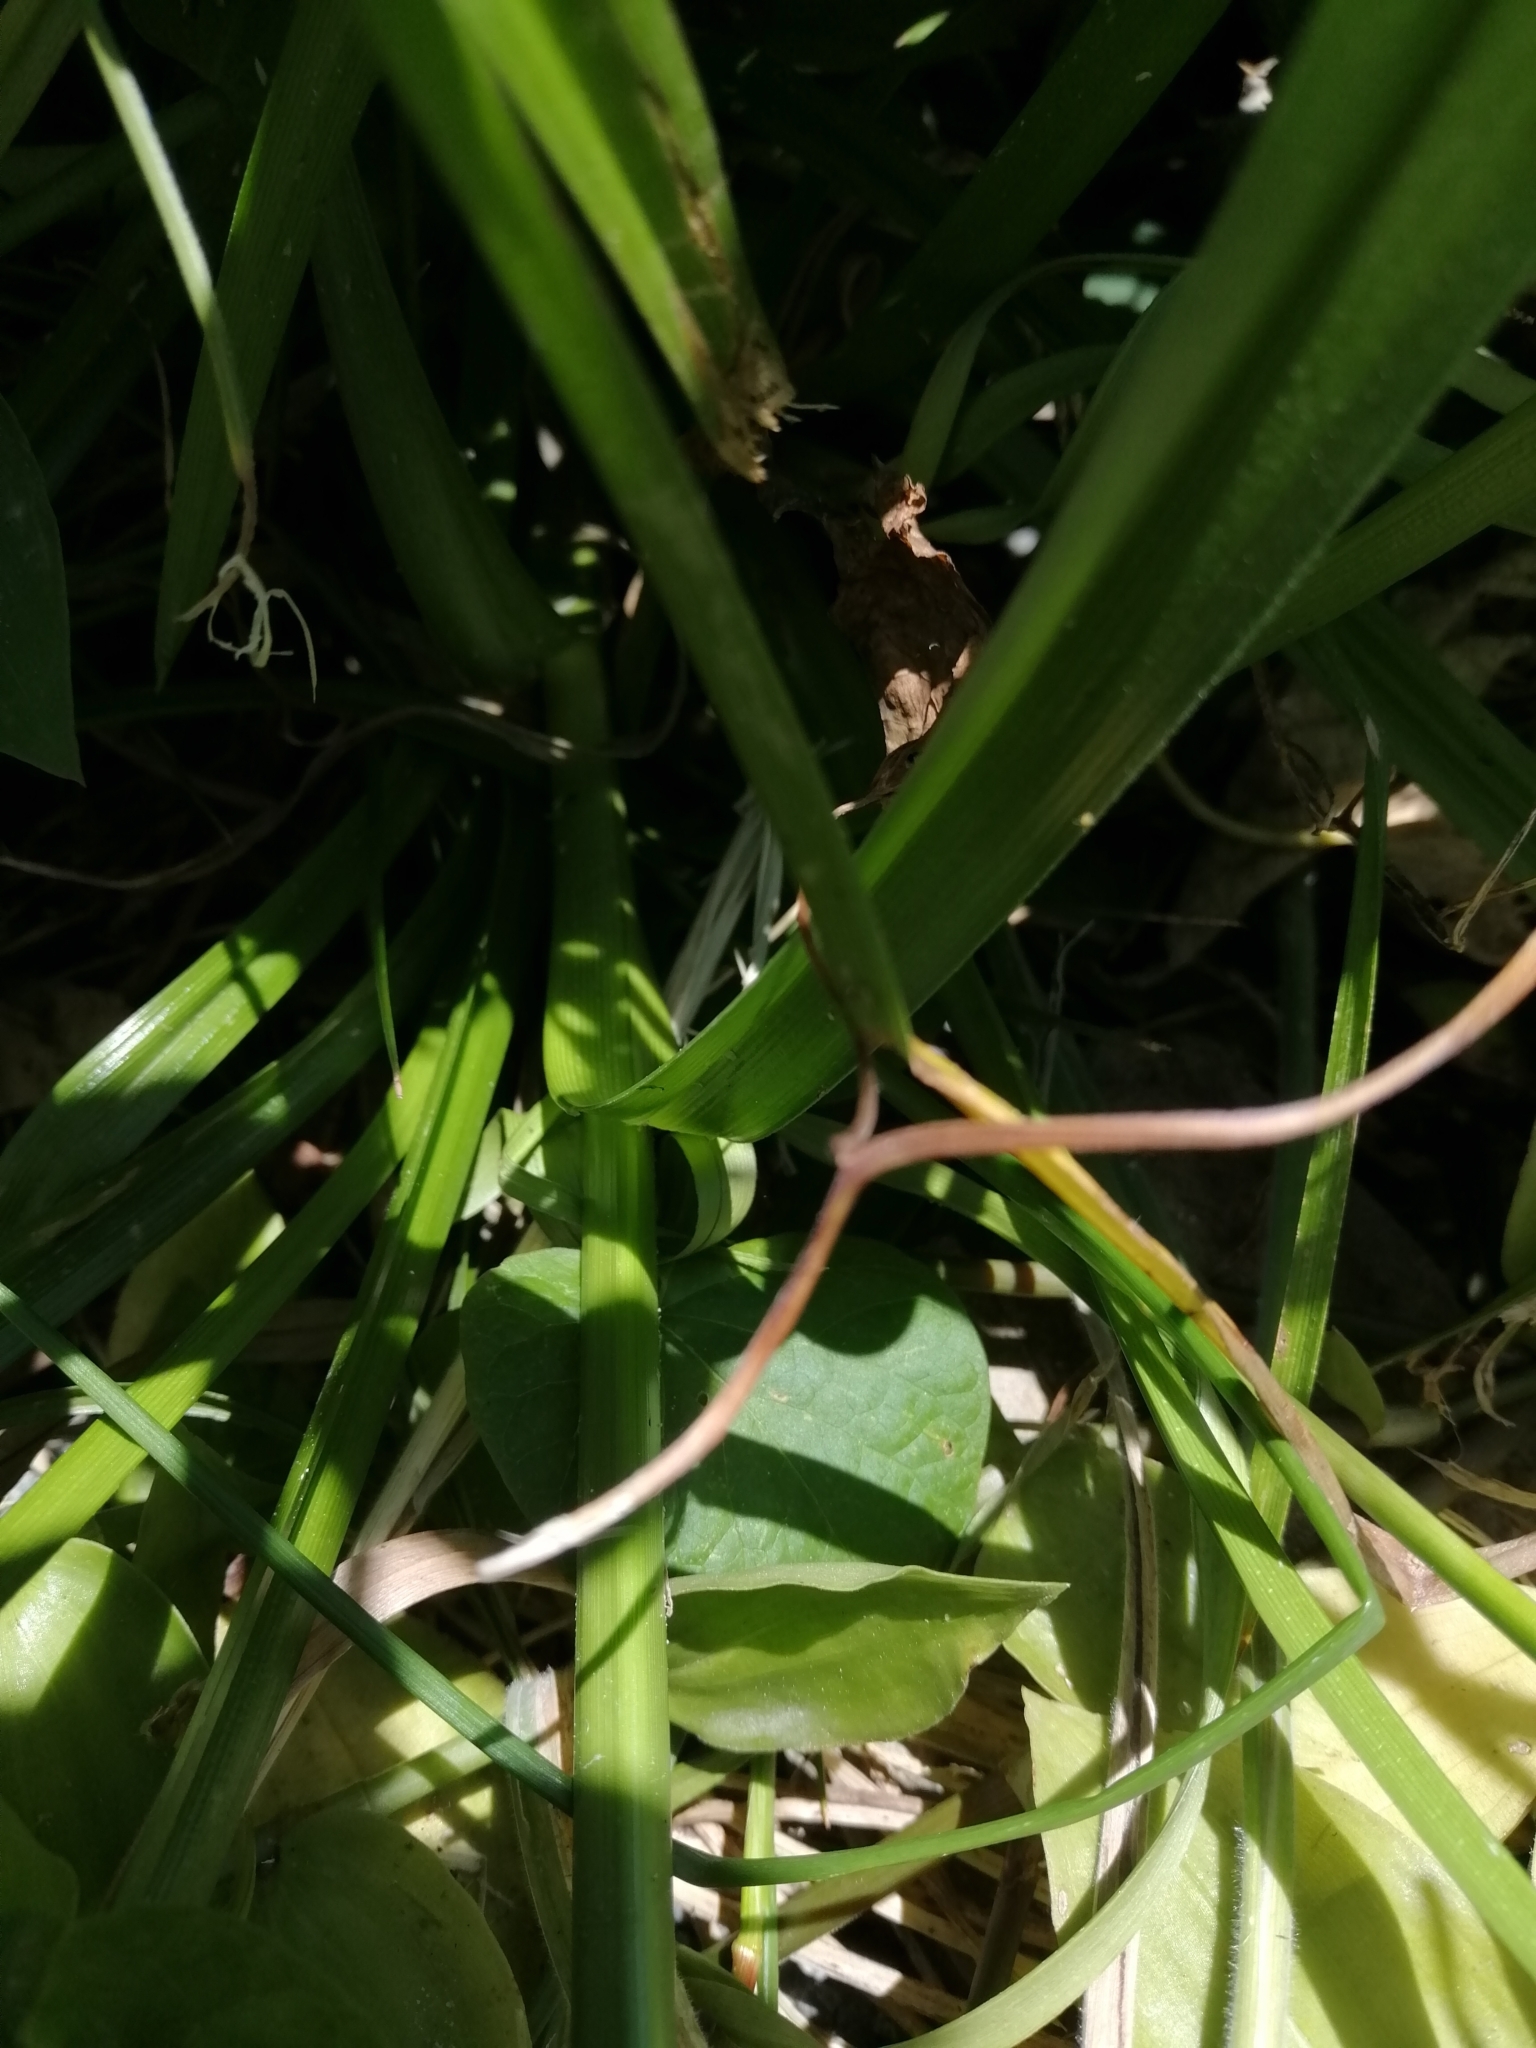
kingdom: Plantae
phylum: Tracheophyta
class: Liliopsida
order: Poales
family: Cyperaceae
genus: Cyperus
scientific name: Cyperus eragrostis
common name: Tall flatsedge
